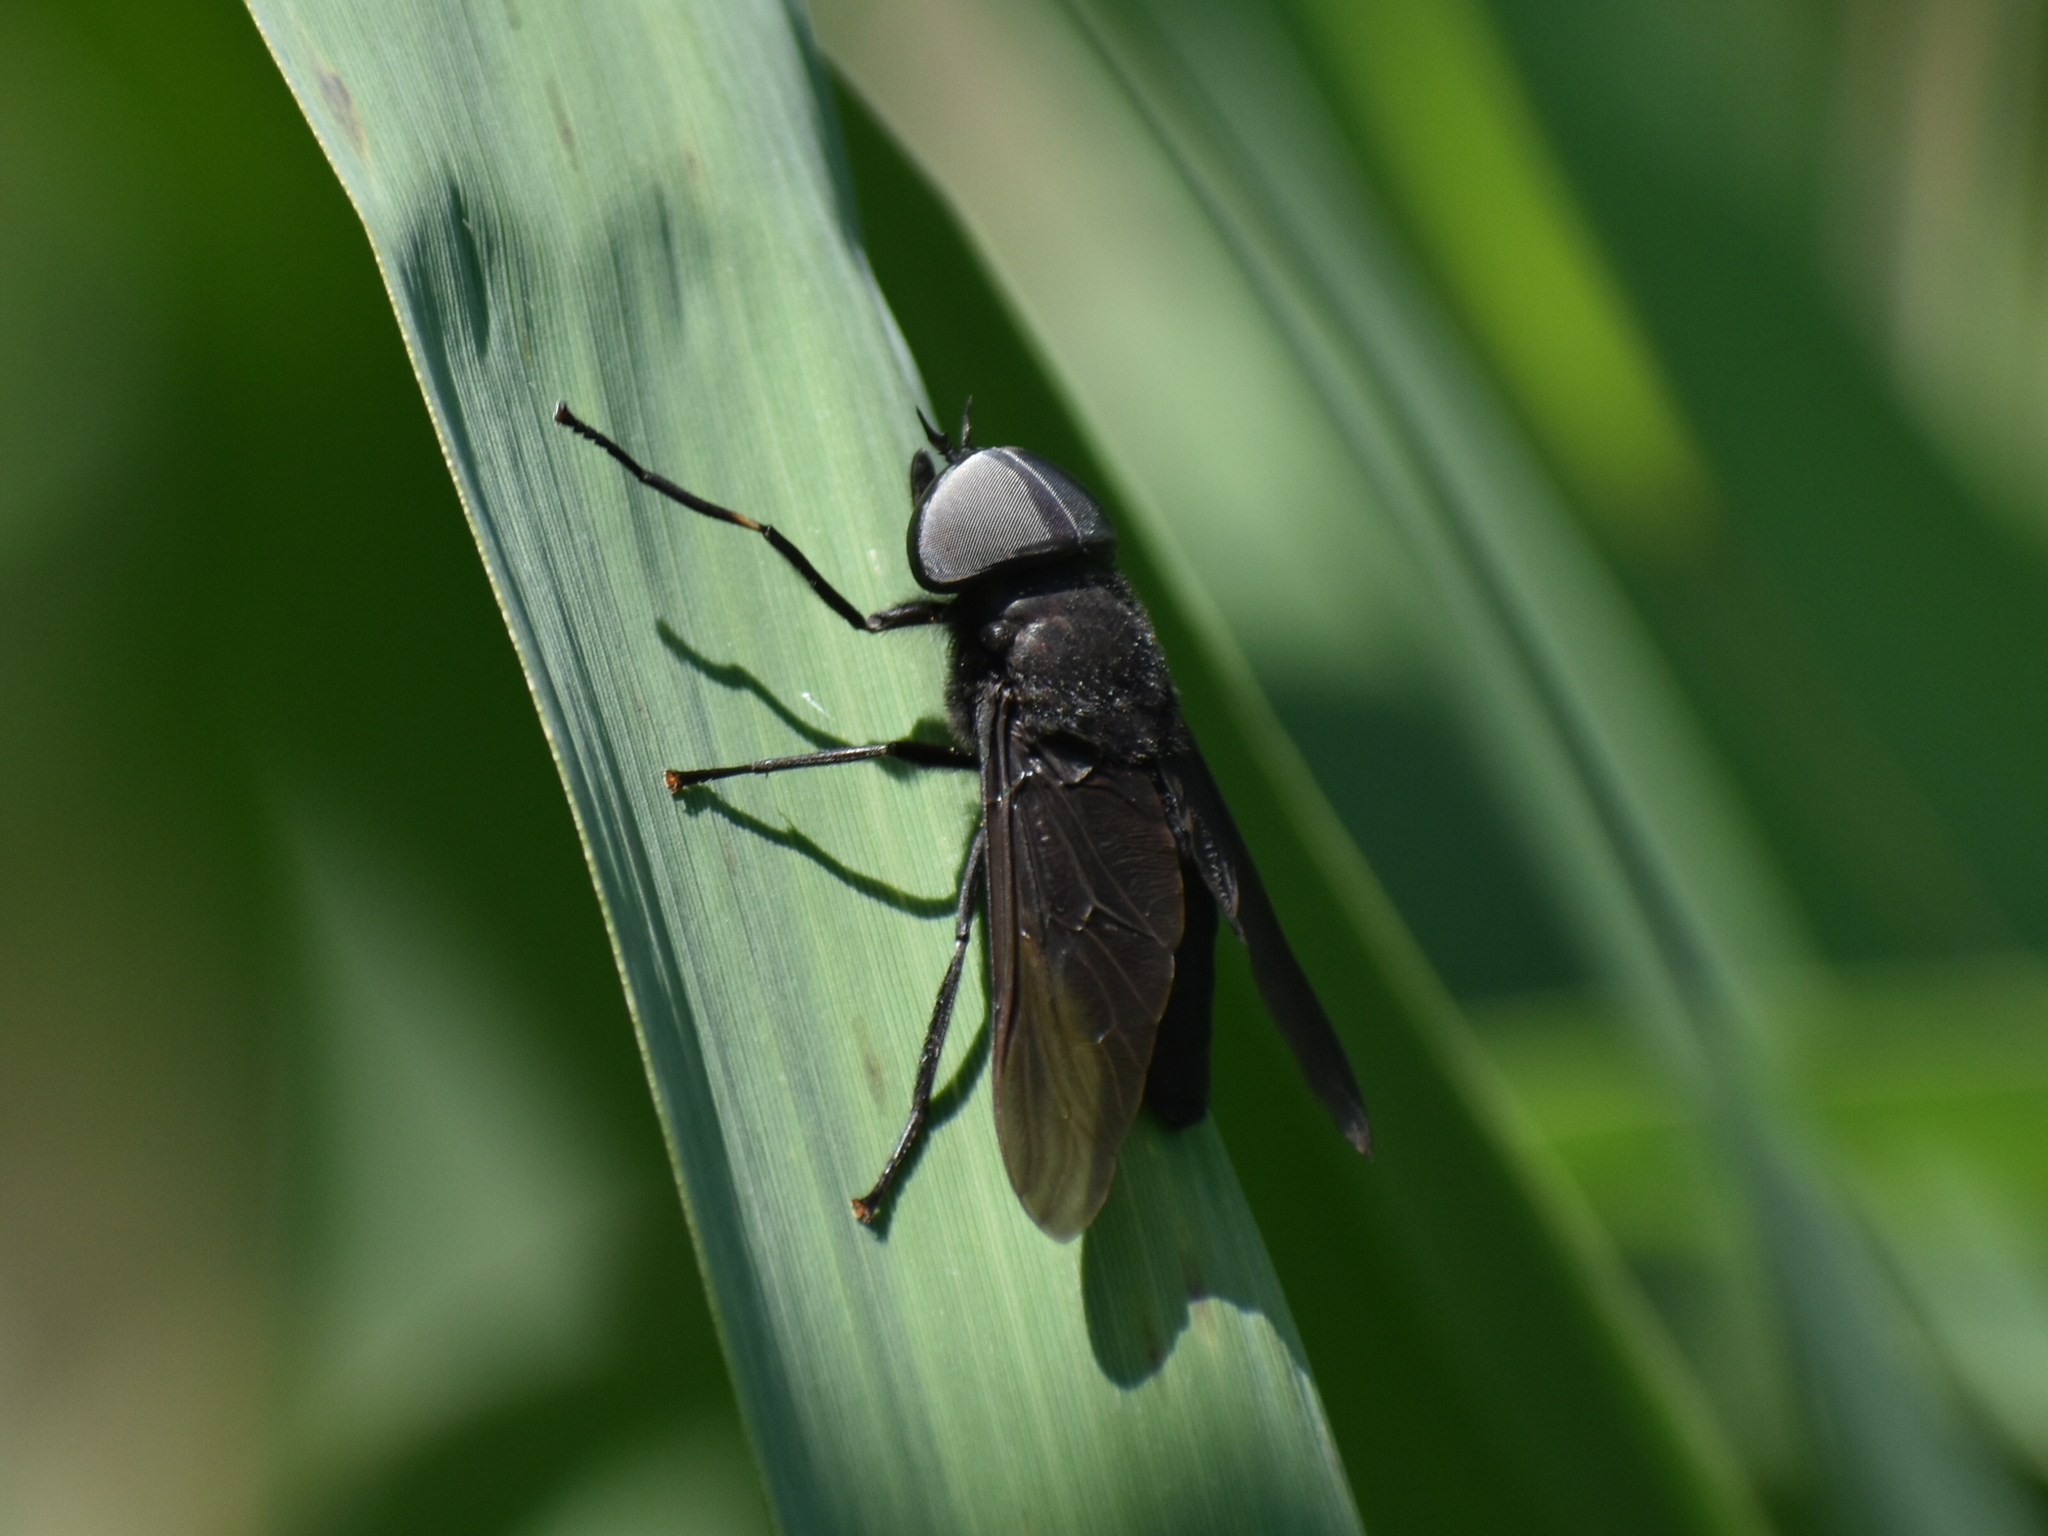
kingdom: Animalia
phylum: Arthropoda
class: Insecta
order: Diptera
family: Tabanidae
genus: Tabanus
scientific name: Tabanus atratus
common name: Black horse fly
